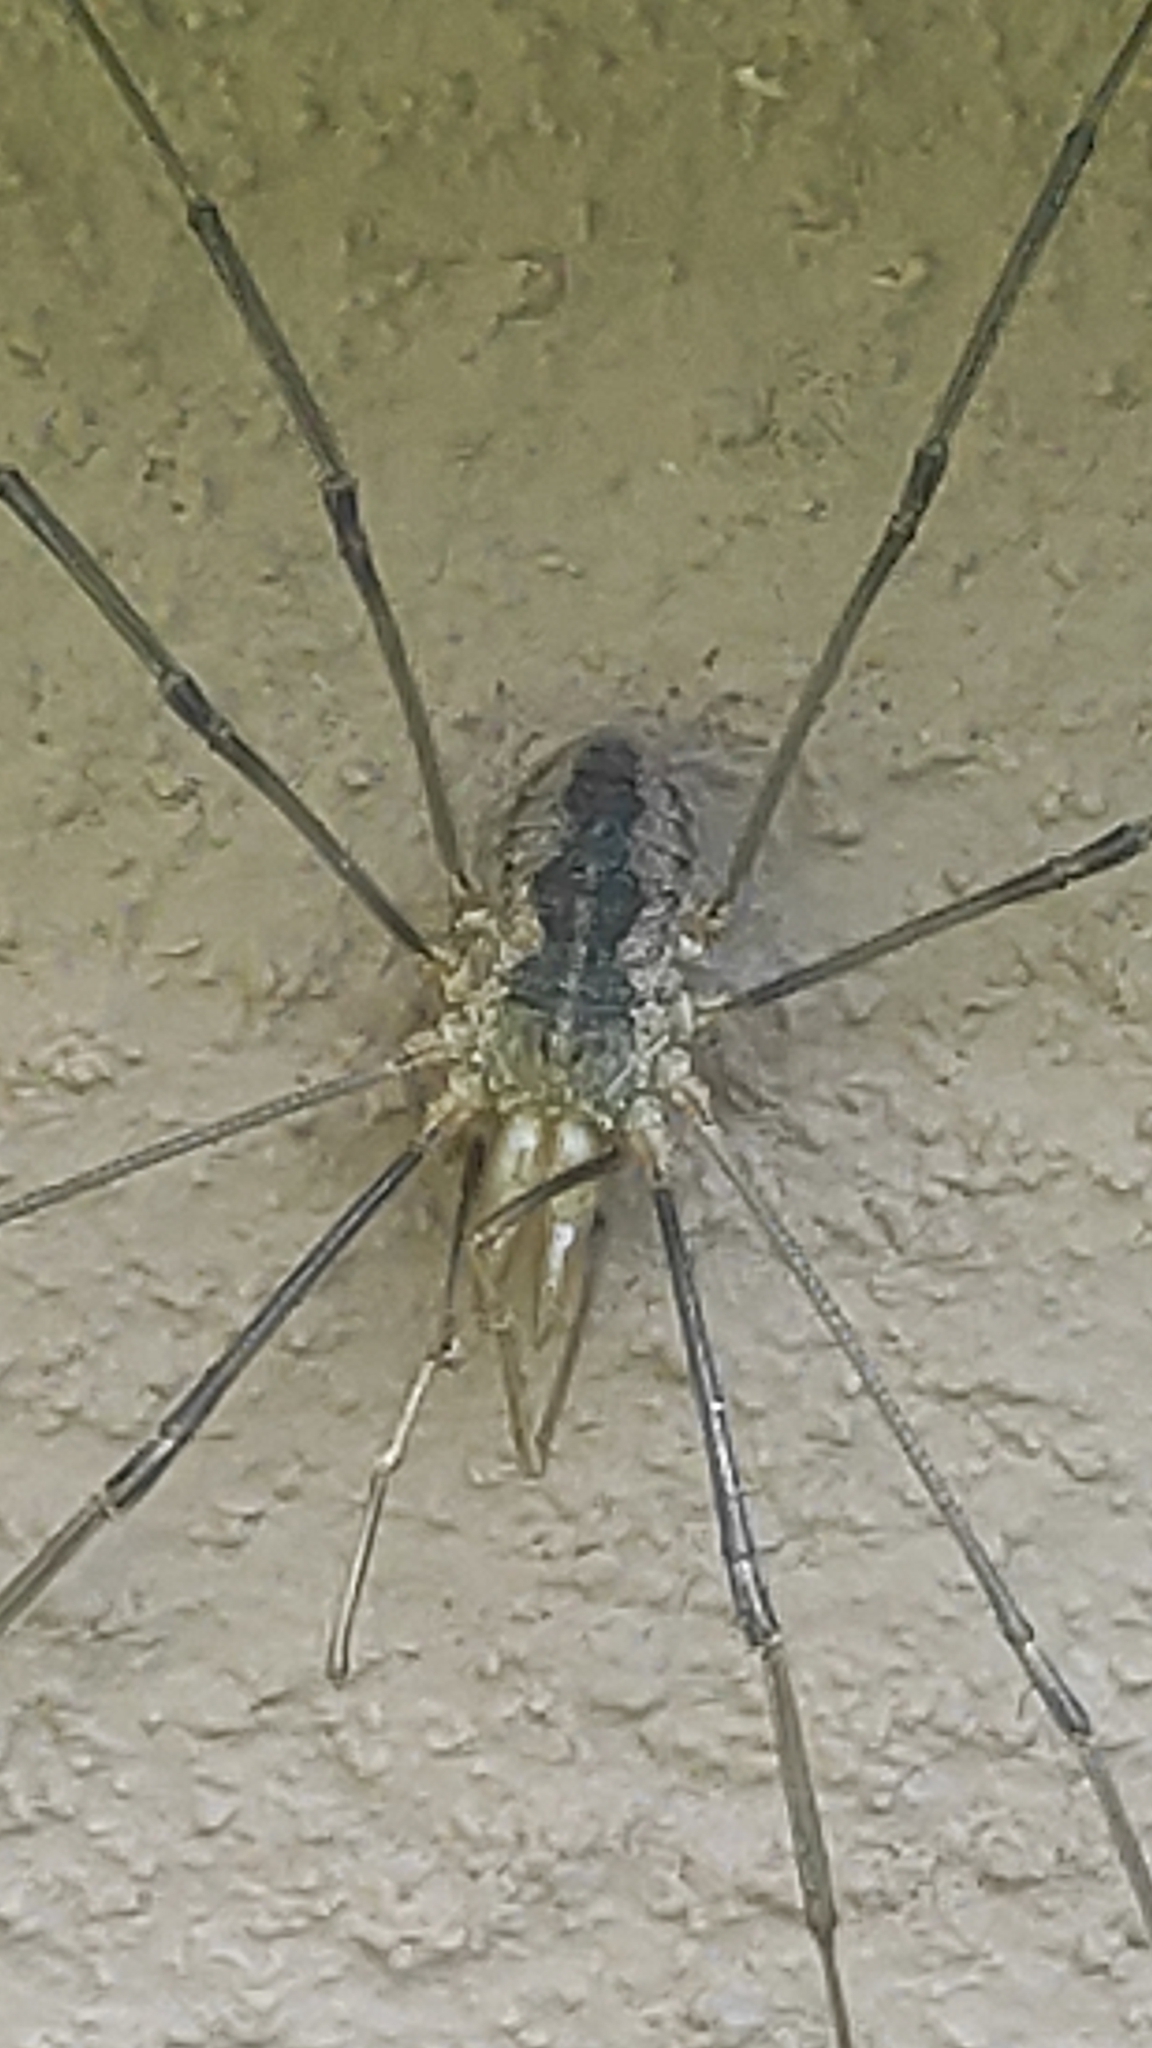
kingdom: Animalia
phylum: Arthropoda
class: Arachnida
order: Opiliones
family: Phalangiidae
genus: Phalangium
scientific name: Phalangium opilio
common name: Daddy longleg
